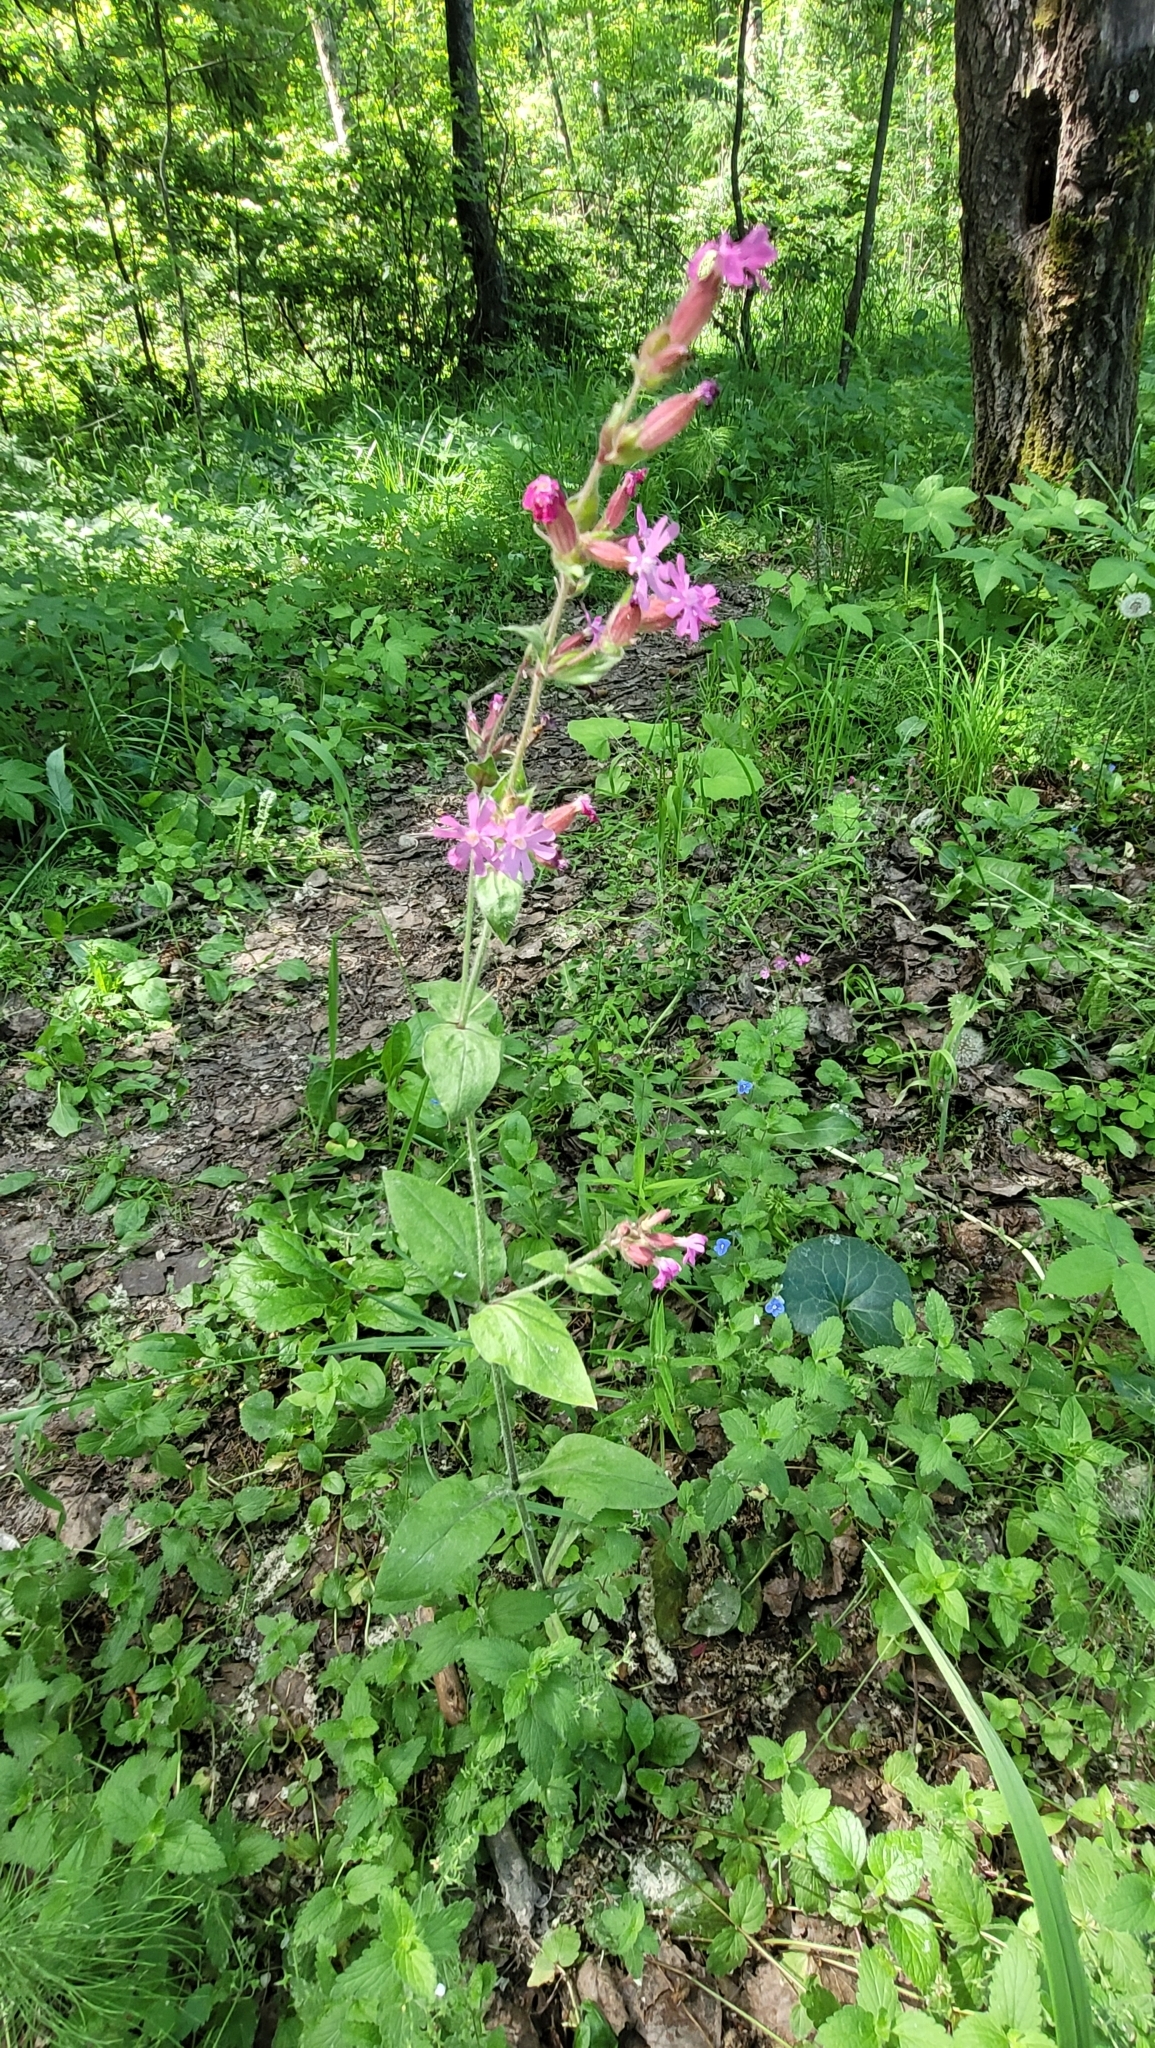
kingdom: Plantae
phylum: Tracheophyta
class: Magnoliopsida
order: Caryophyllales
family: Caryophyllaceae
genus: Silene
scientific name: Silene dioica
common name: Red campion
